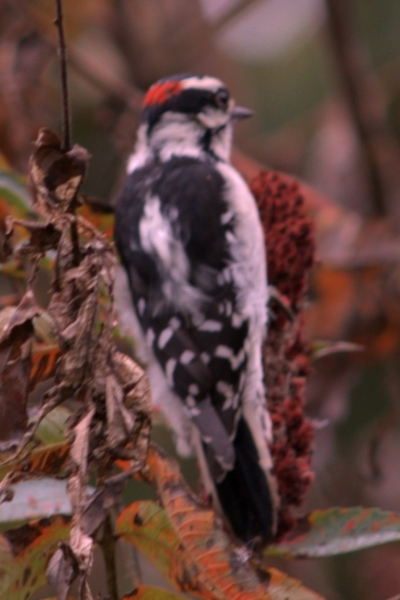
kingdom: Animalia
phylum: Chordata
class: Aves
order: Piciformes
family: Picidae
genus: Dryobates
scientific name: Dryobates pubescens
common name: Downy woodpecker
